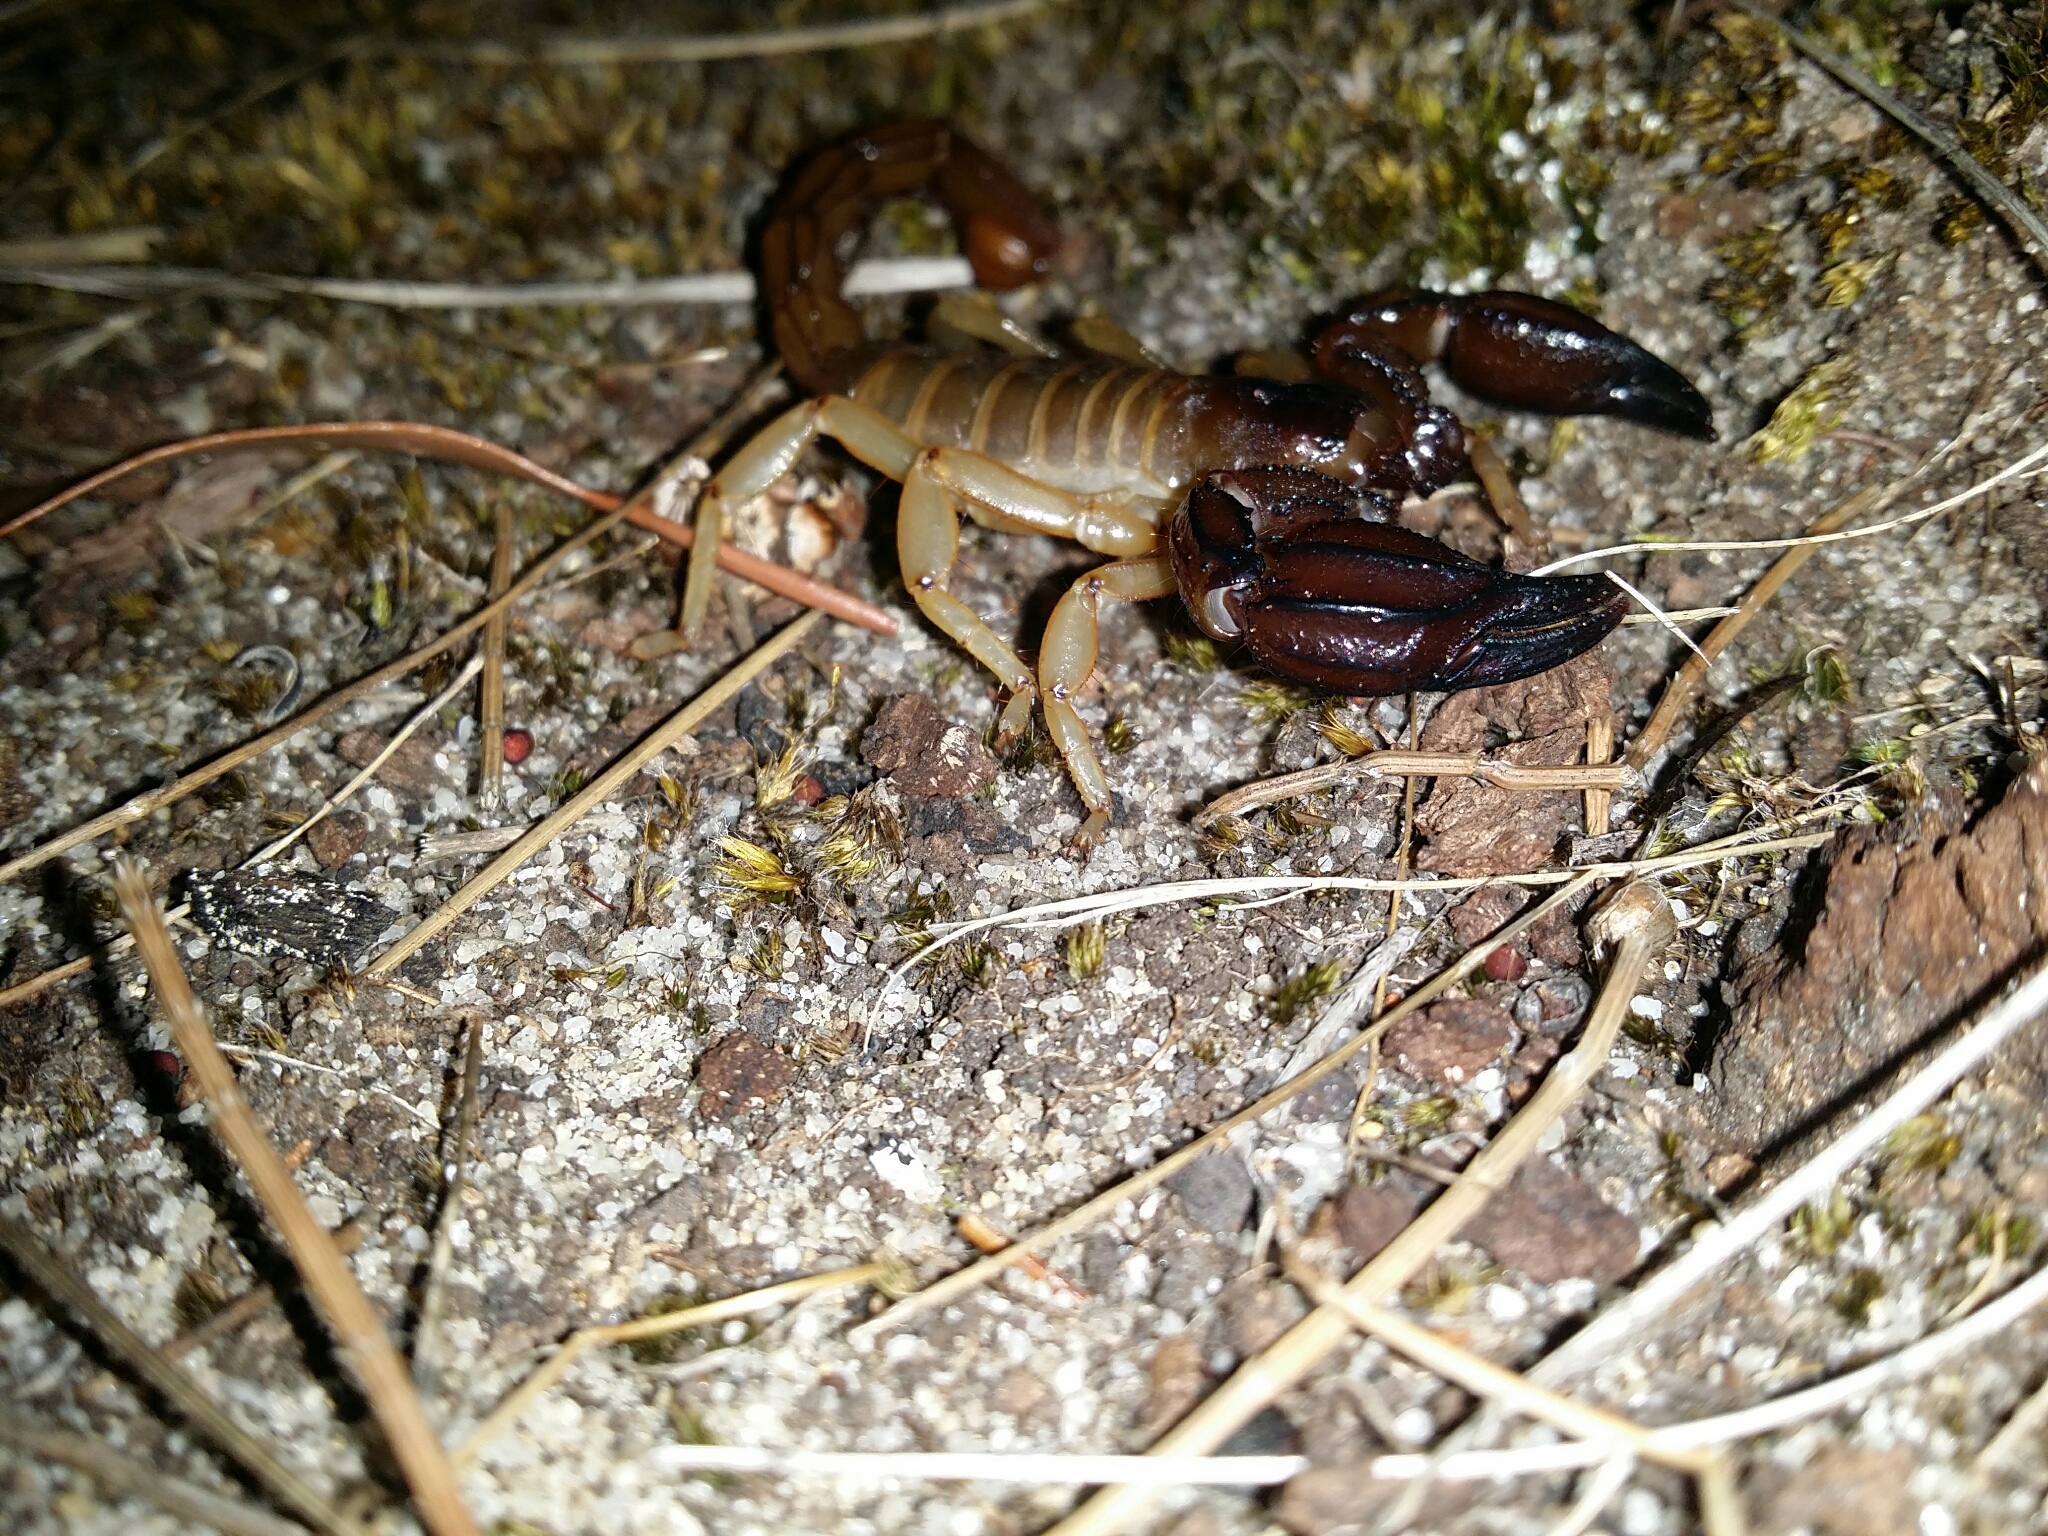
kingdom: Animalia
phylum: Arthropoda
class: Arachnida
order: Scorpiones
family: Scorpionidae
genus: Urodacus
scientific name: Urodacus novaehollandiae
